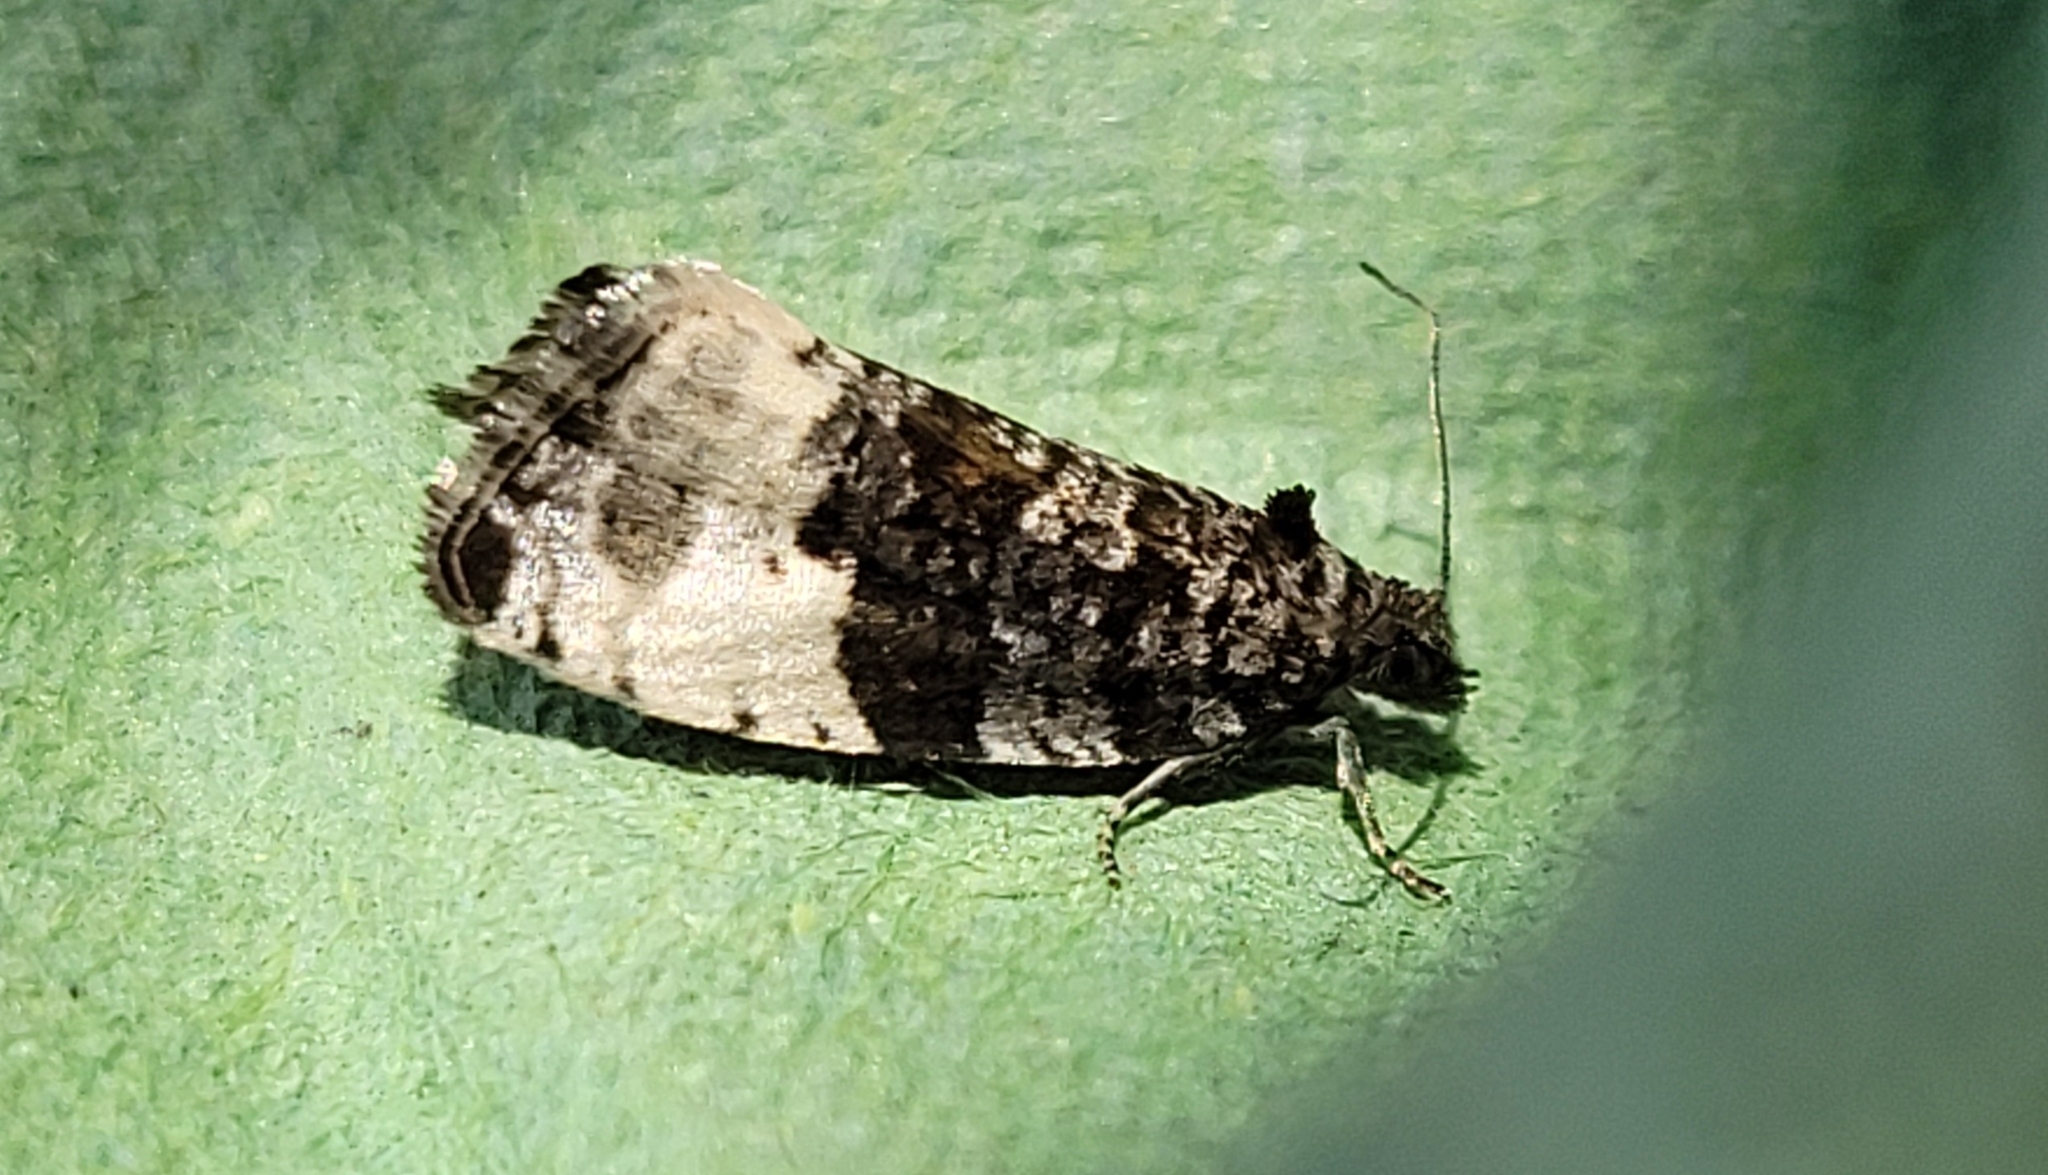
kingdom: Animalia
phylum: Arthropoda
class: Insecta
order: Lepidoptera
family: Tortricidae
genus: Hedya
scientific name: Hedya pruniana
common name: Plum tortrix
